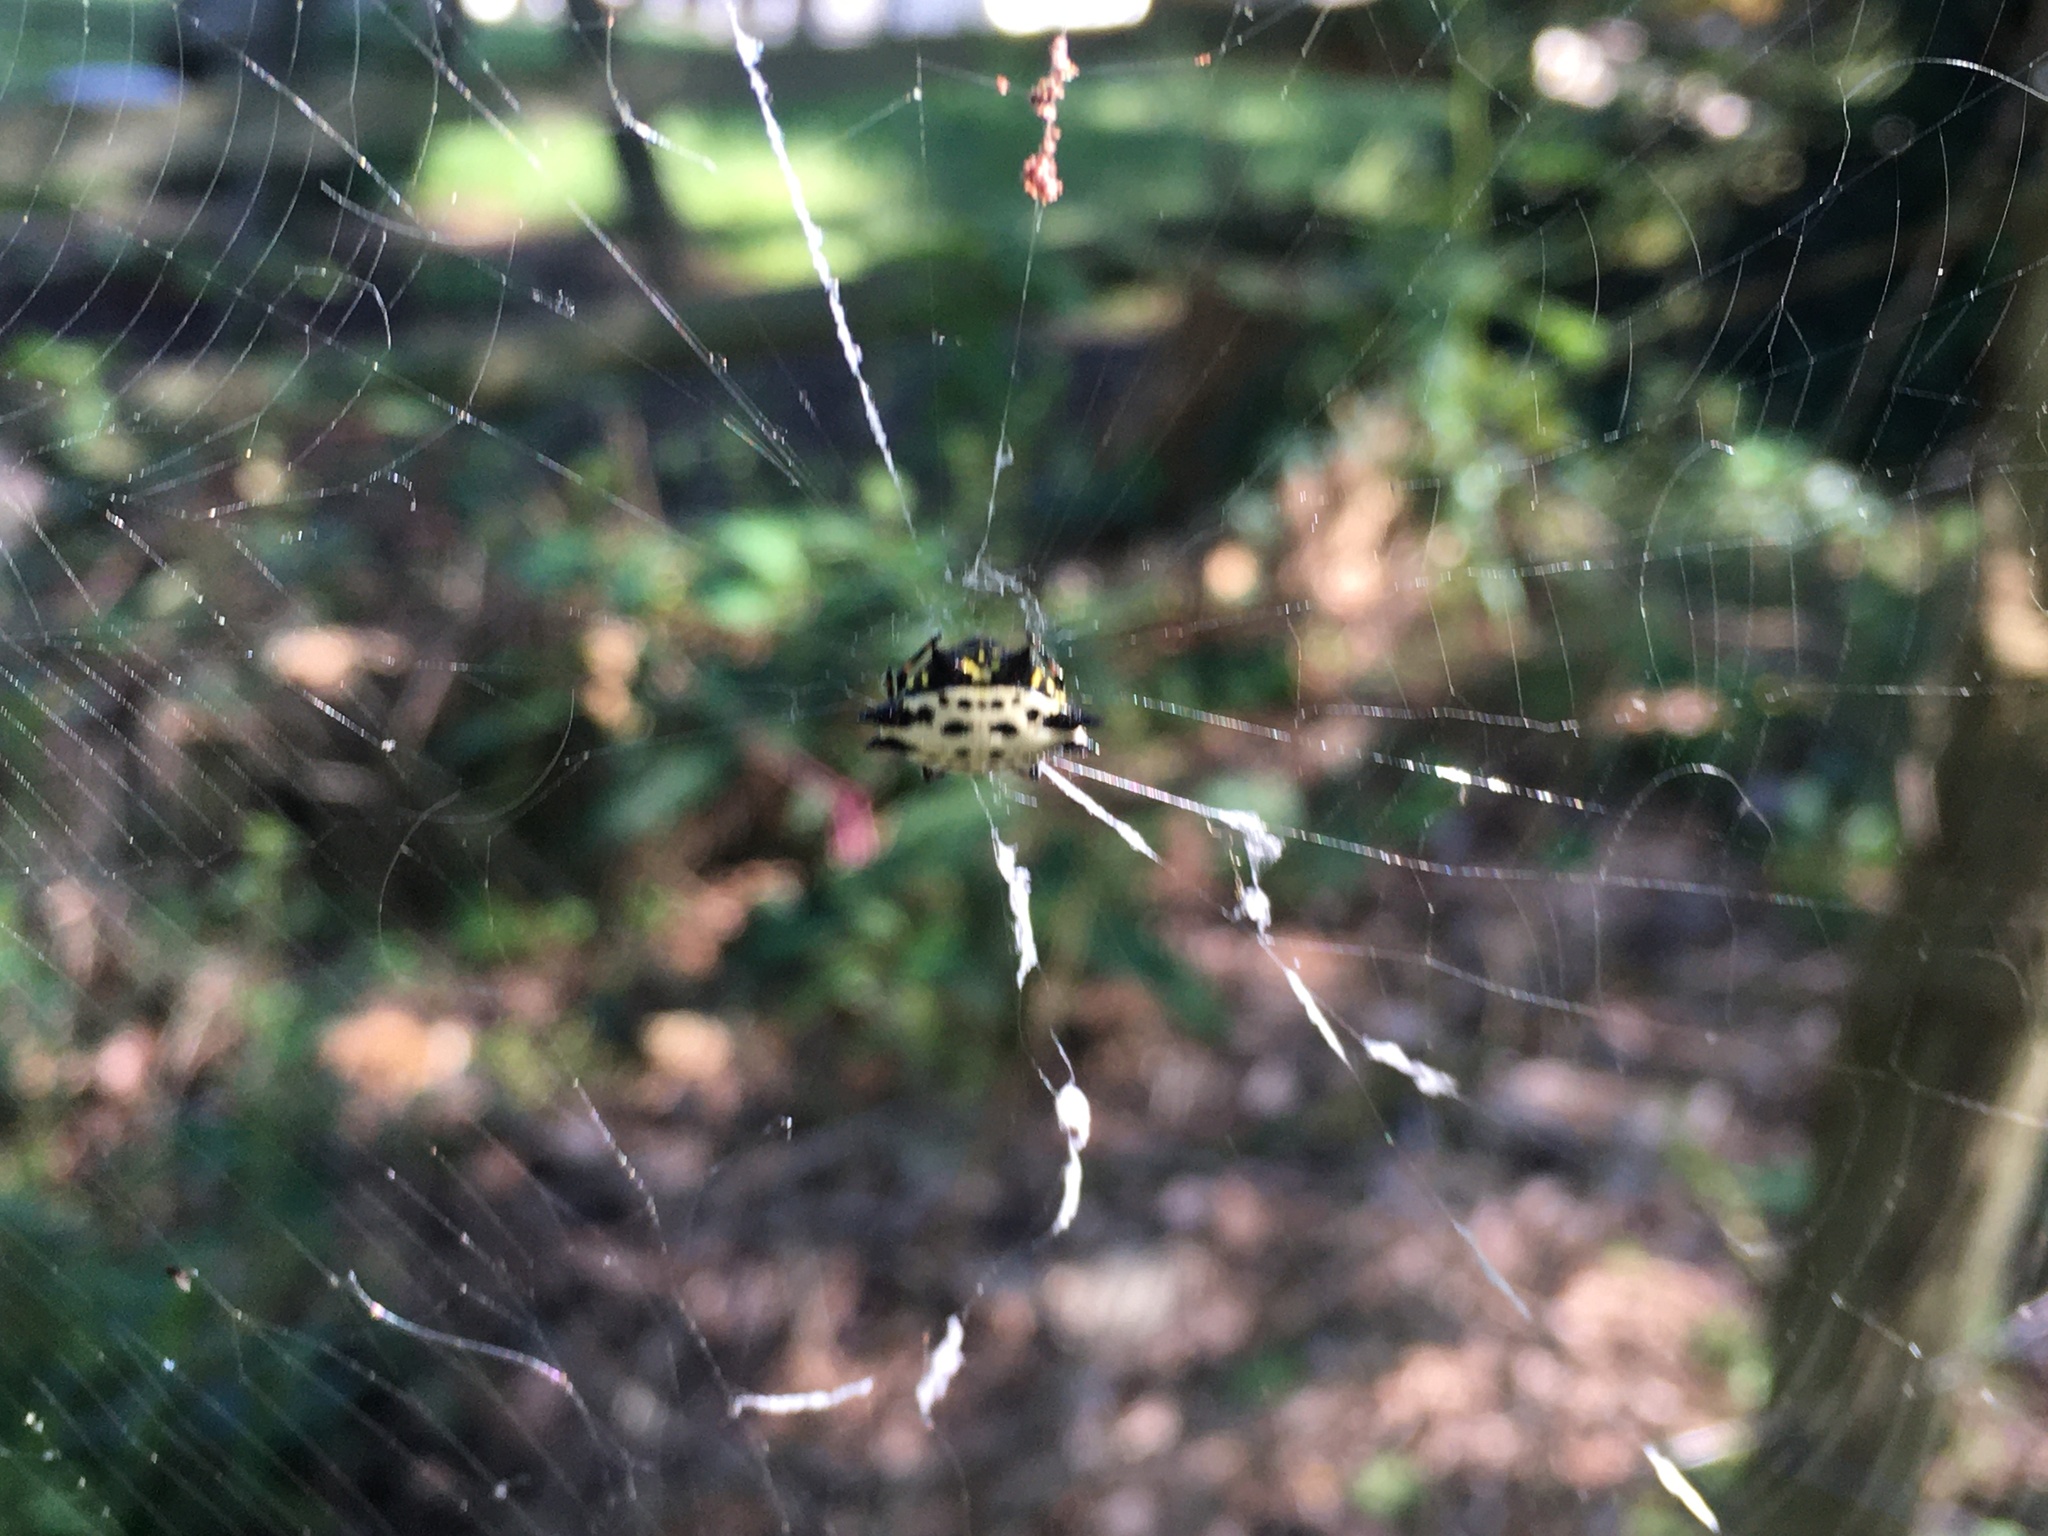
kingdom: Animalia
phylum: Arthropoda
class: Arachnida
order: Araneae
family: Araneidae
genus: Gasteracantha
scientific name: Gasteracantha cancriformis
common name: Orb weavers
